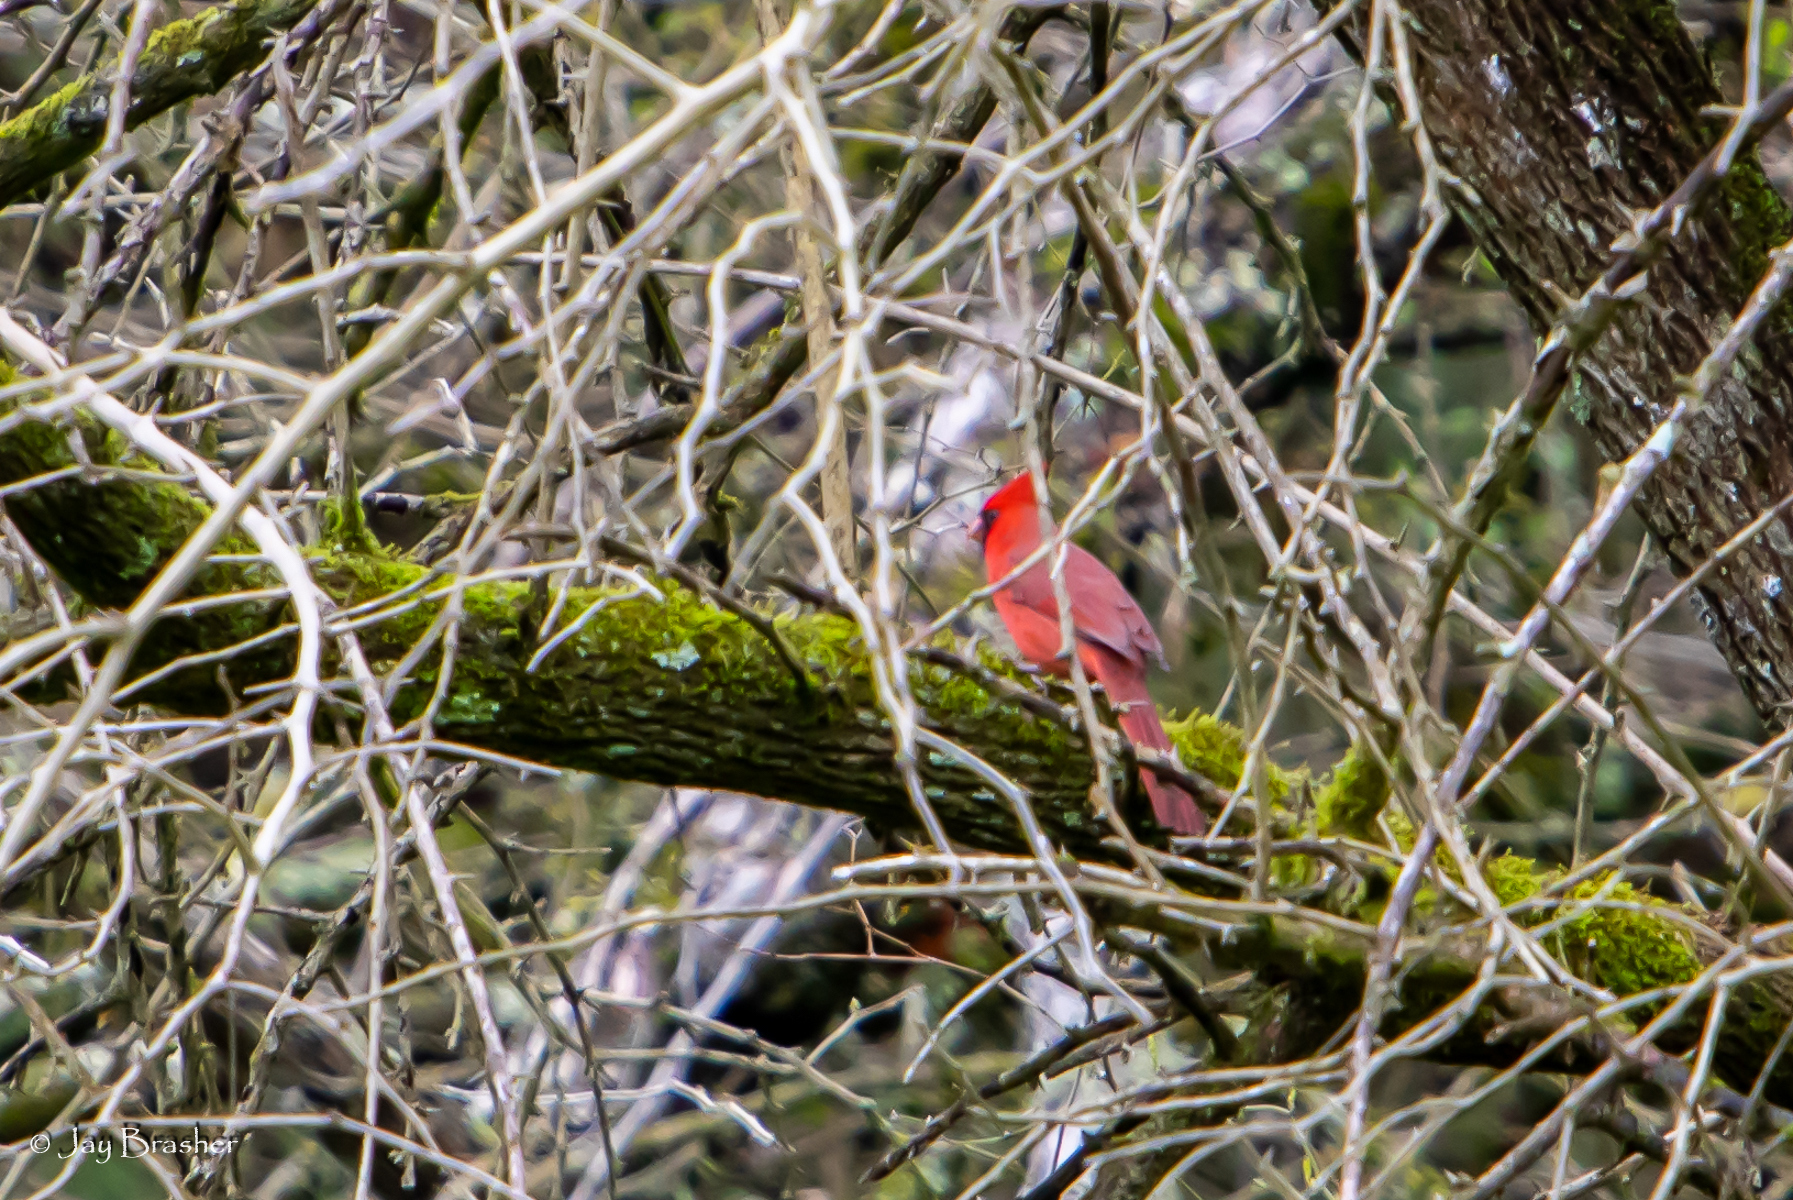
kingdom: Animalia
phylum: Chordata
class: Aves
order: Passeriformes
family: Cardinalidae
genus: Cardinalis
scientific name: Cardinalis cardinalis
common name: Northern cardinal
